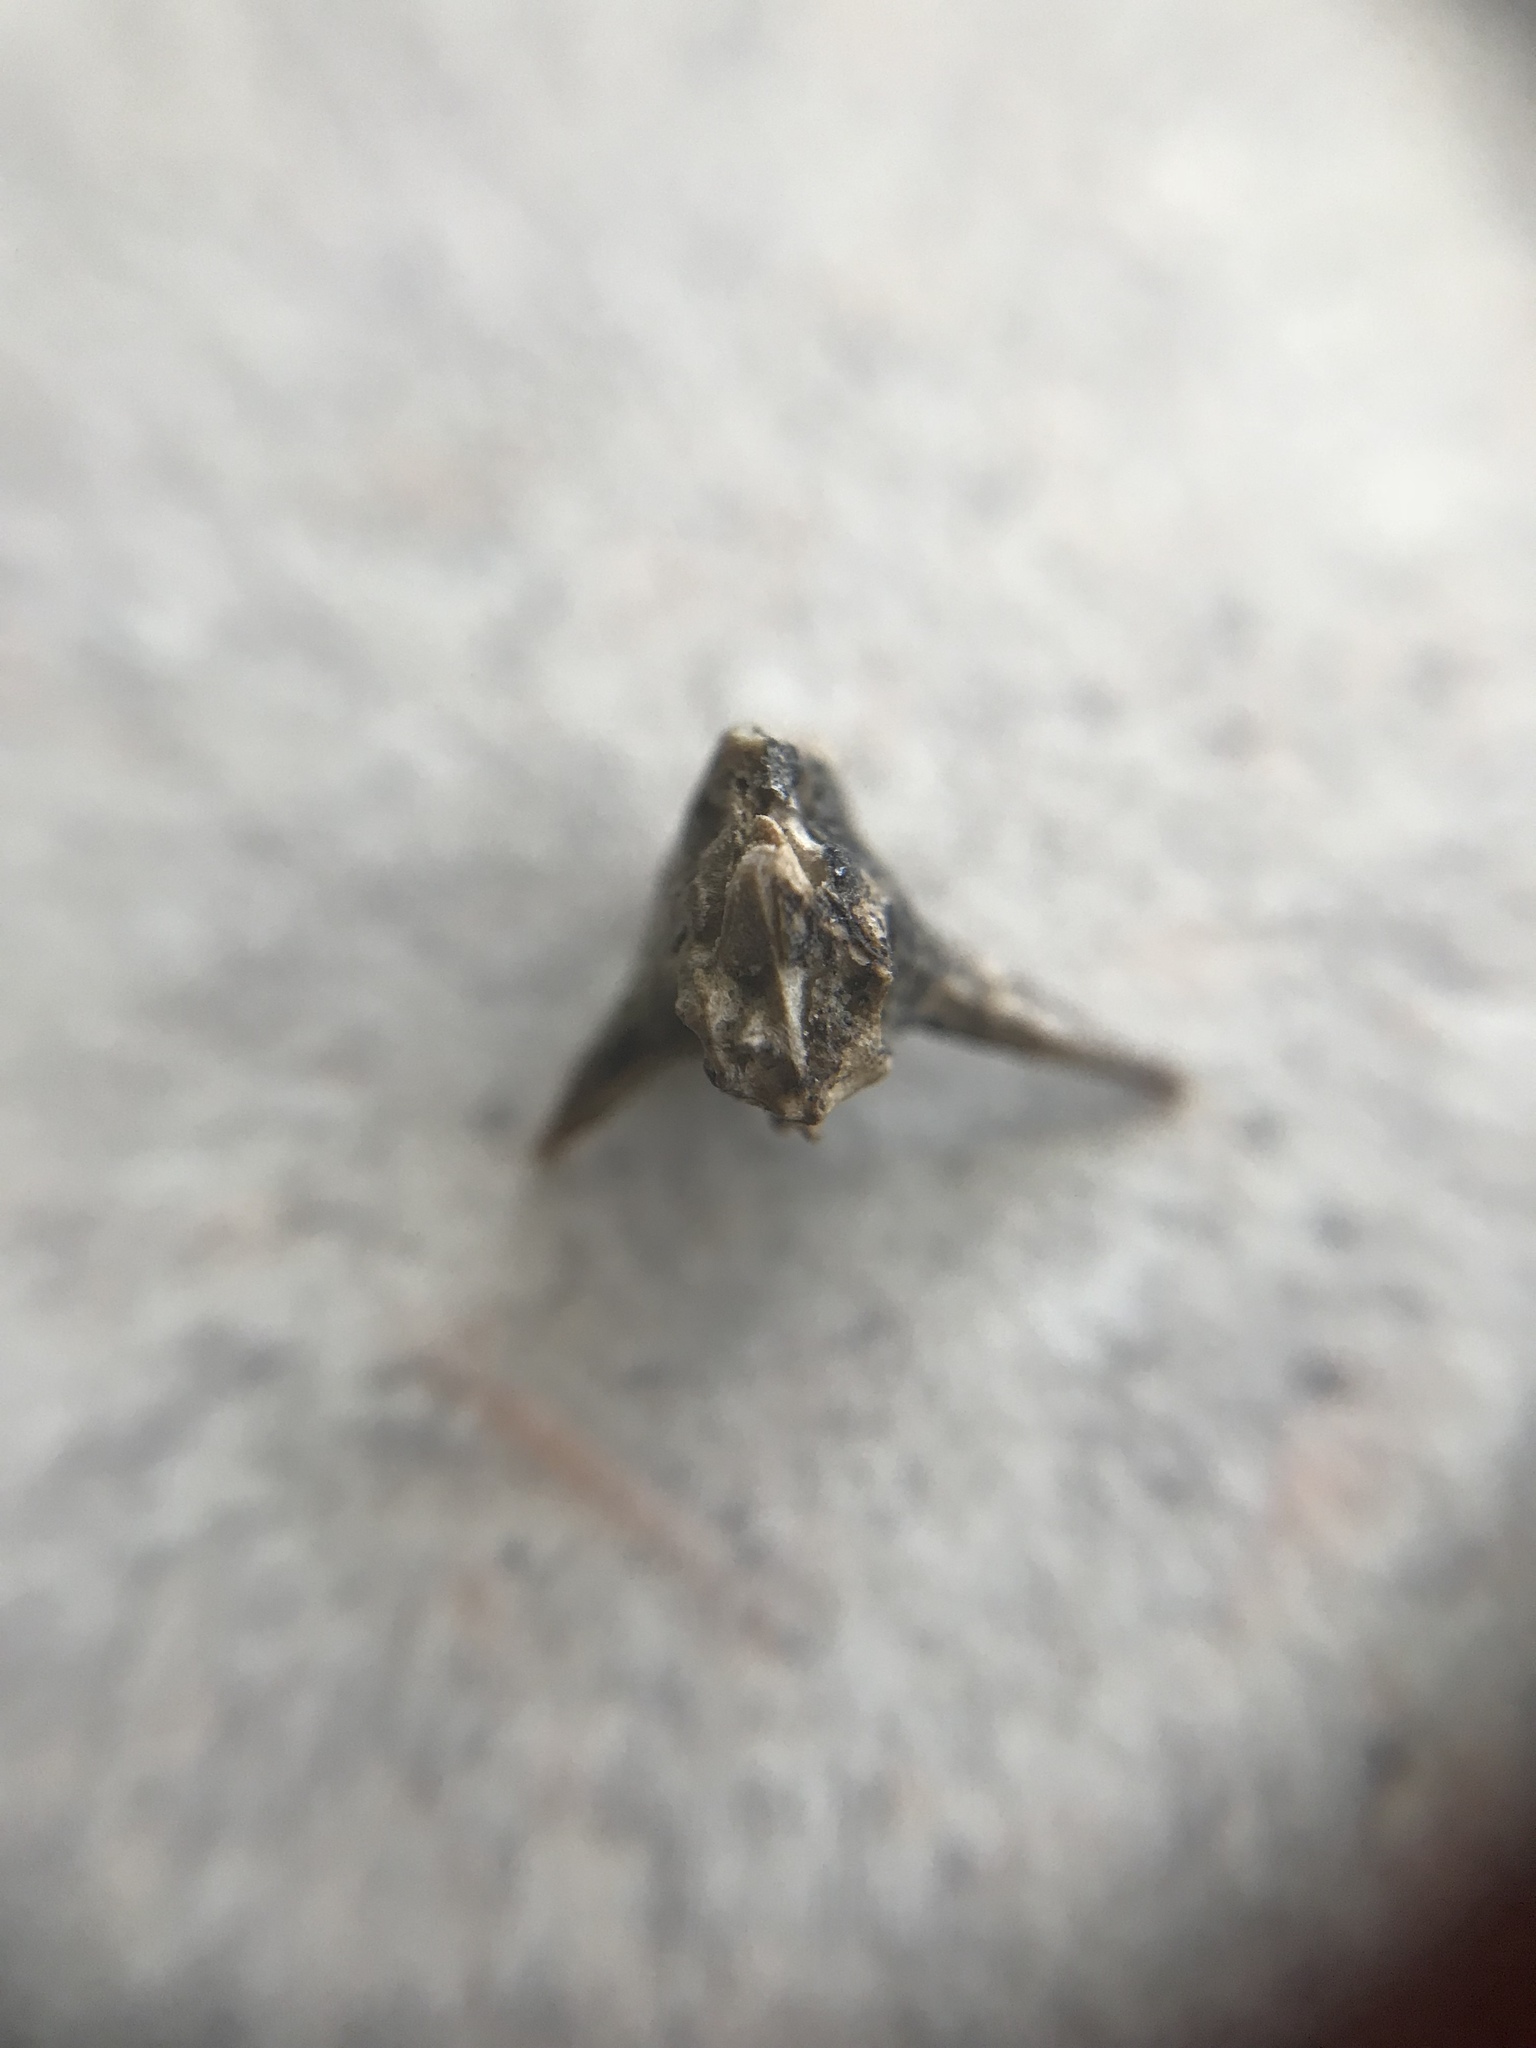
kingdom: Plantae
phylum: Tracheophyta
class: Magnoliopsida
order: Zygophyllales
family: Zygophyllaceae
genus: Tribulus
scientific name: Tribulus terrestris
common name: Puncturevine
